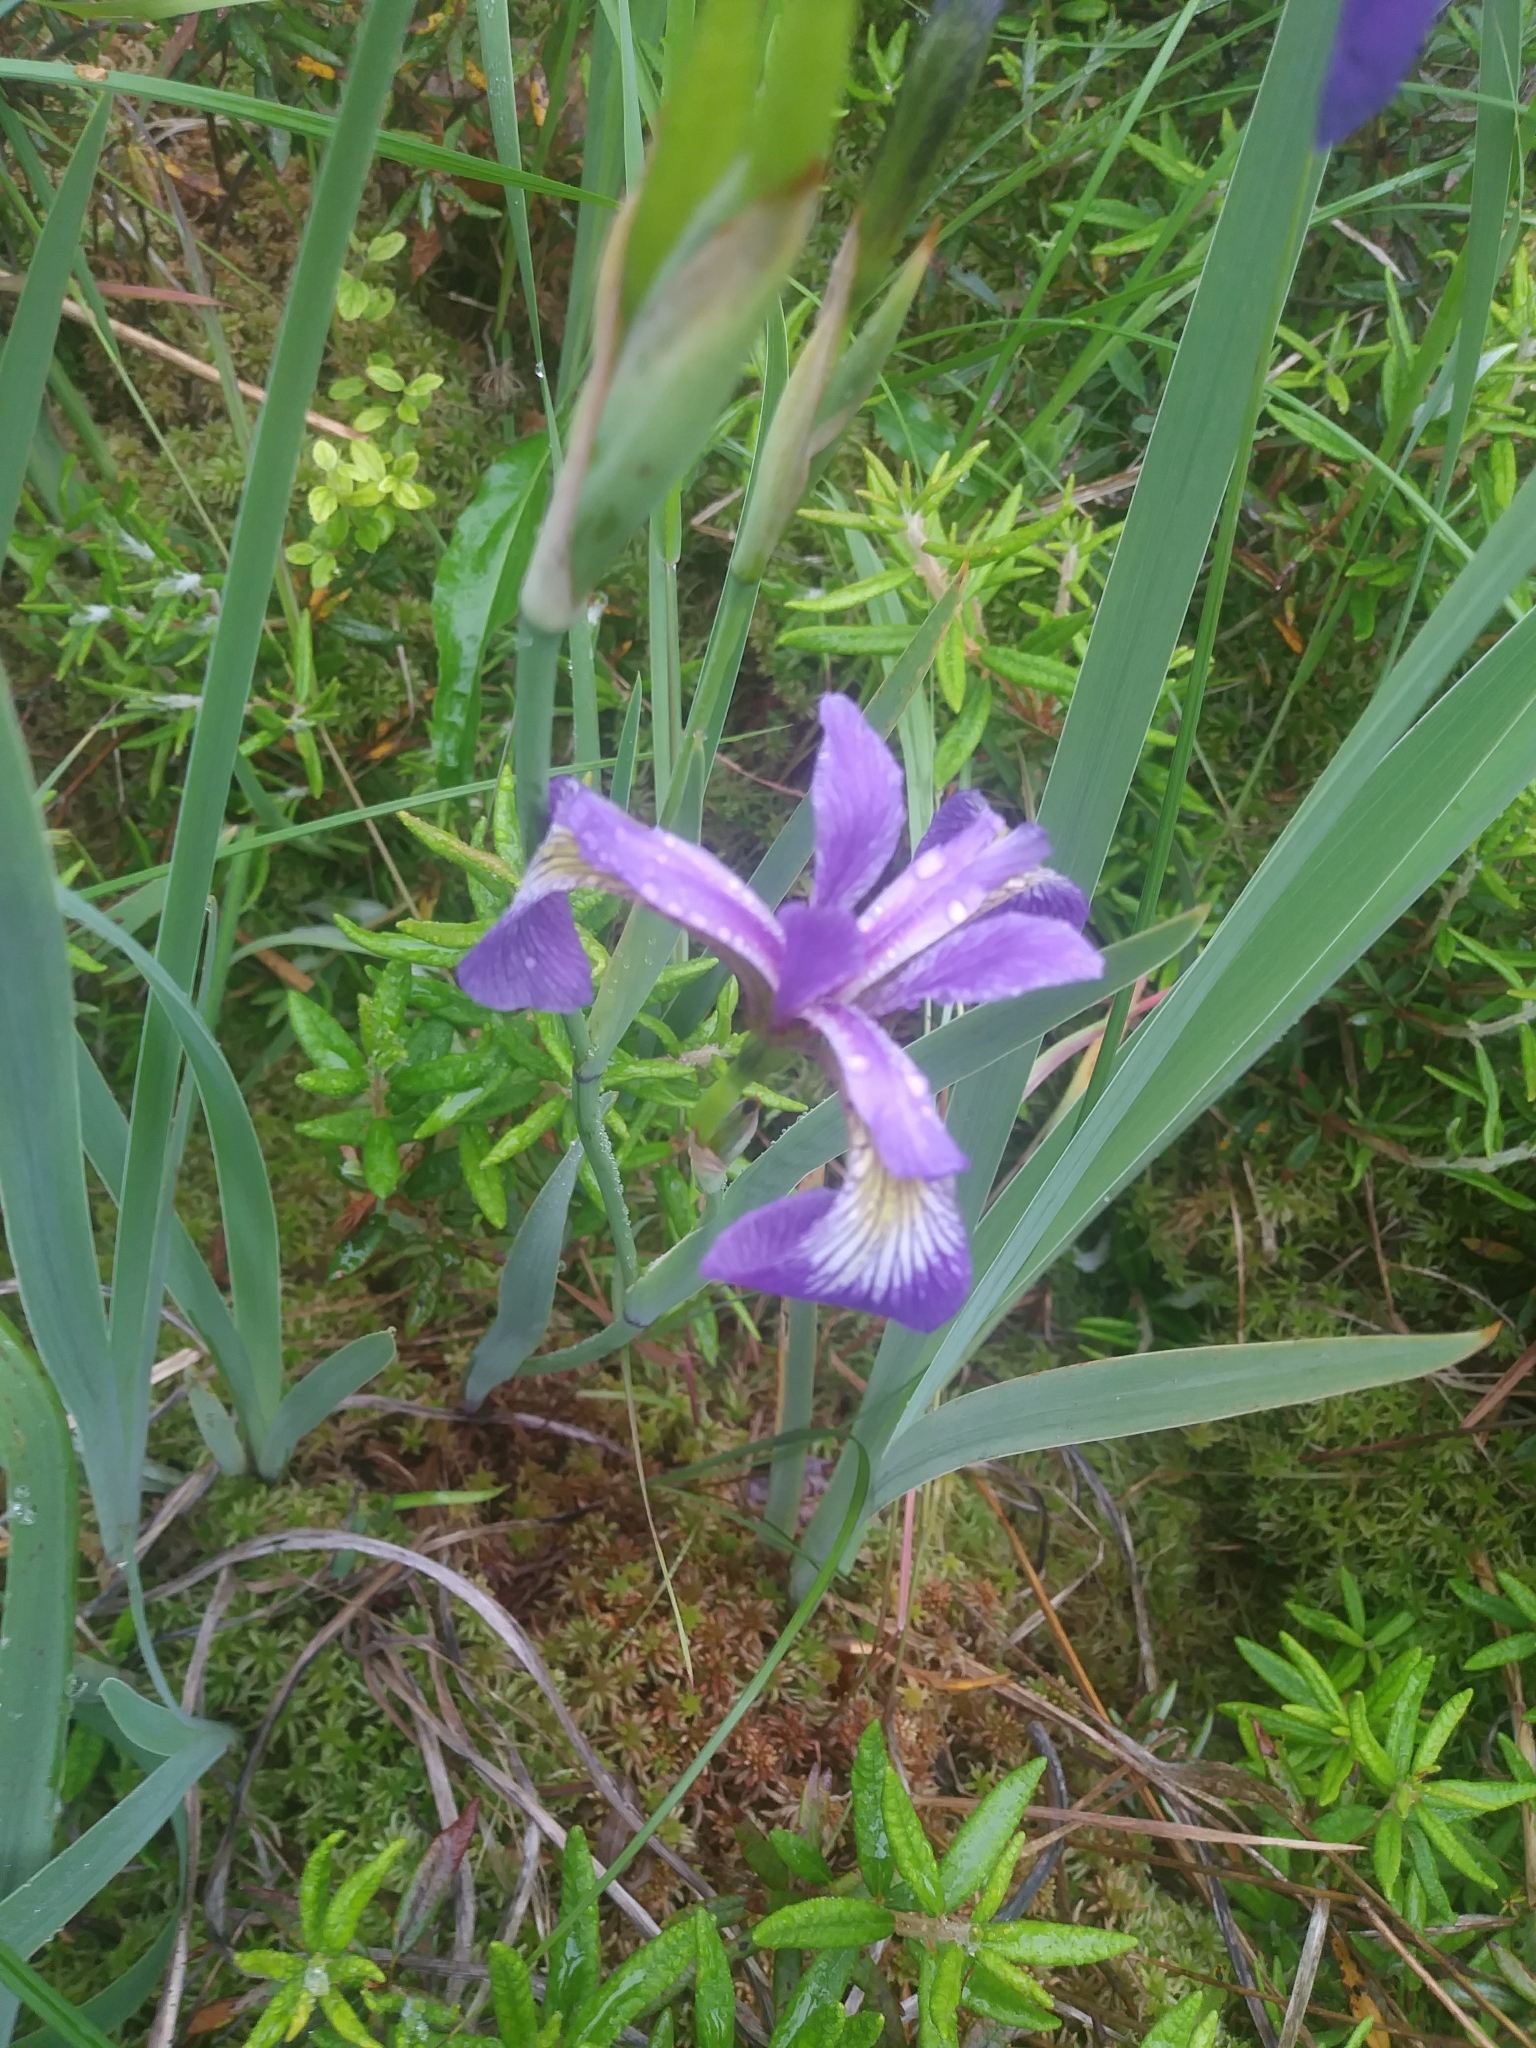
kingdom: Plantae
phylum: Tracheophyta
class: Liliopsida
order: Asparagales
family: Iridaceae
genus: Iris
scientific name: Iris versicolor
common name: Purple iris
